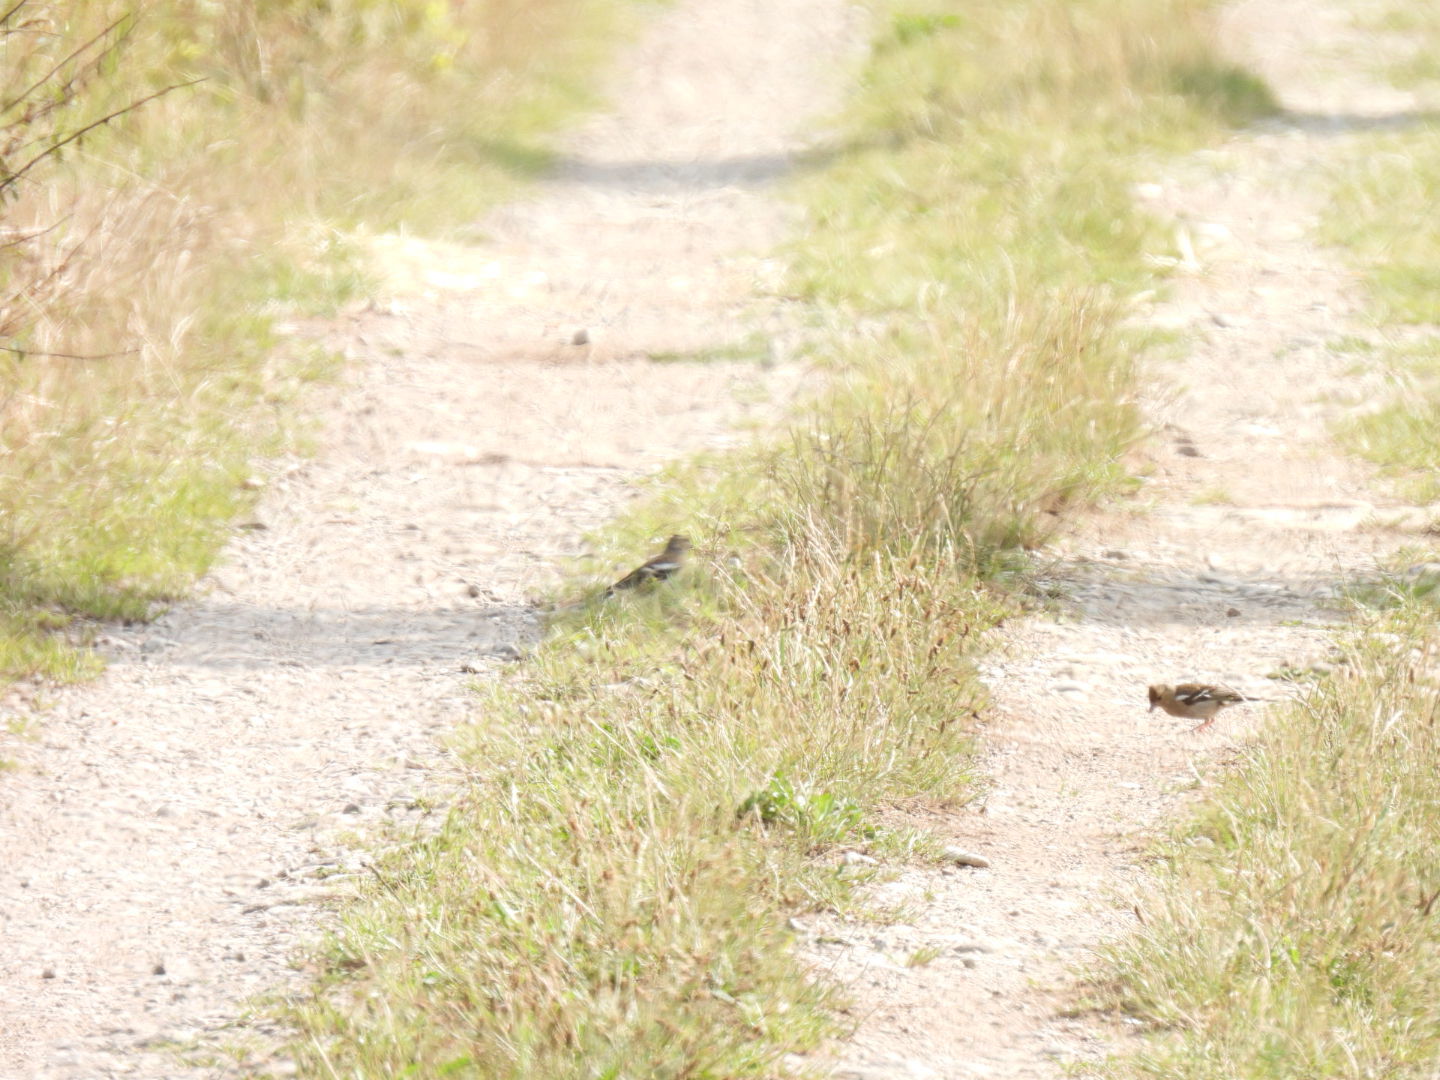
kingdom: Animalia
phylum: Chordata
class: Aves
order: Passeriformes
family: Fringillidae
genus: Fringilla
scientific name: Fringilla coelebs
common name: Common chaffinch
